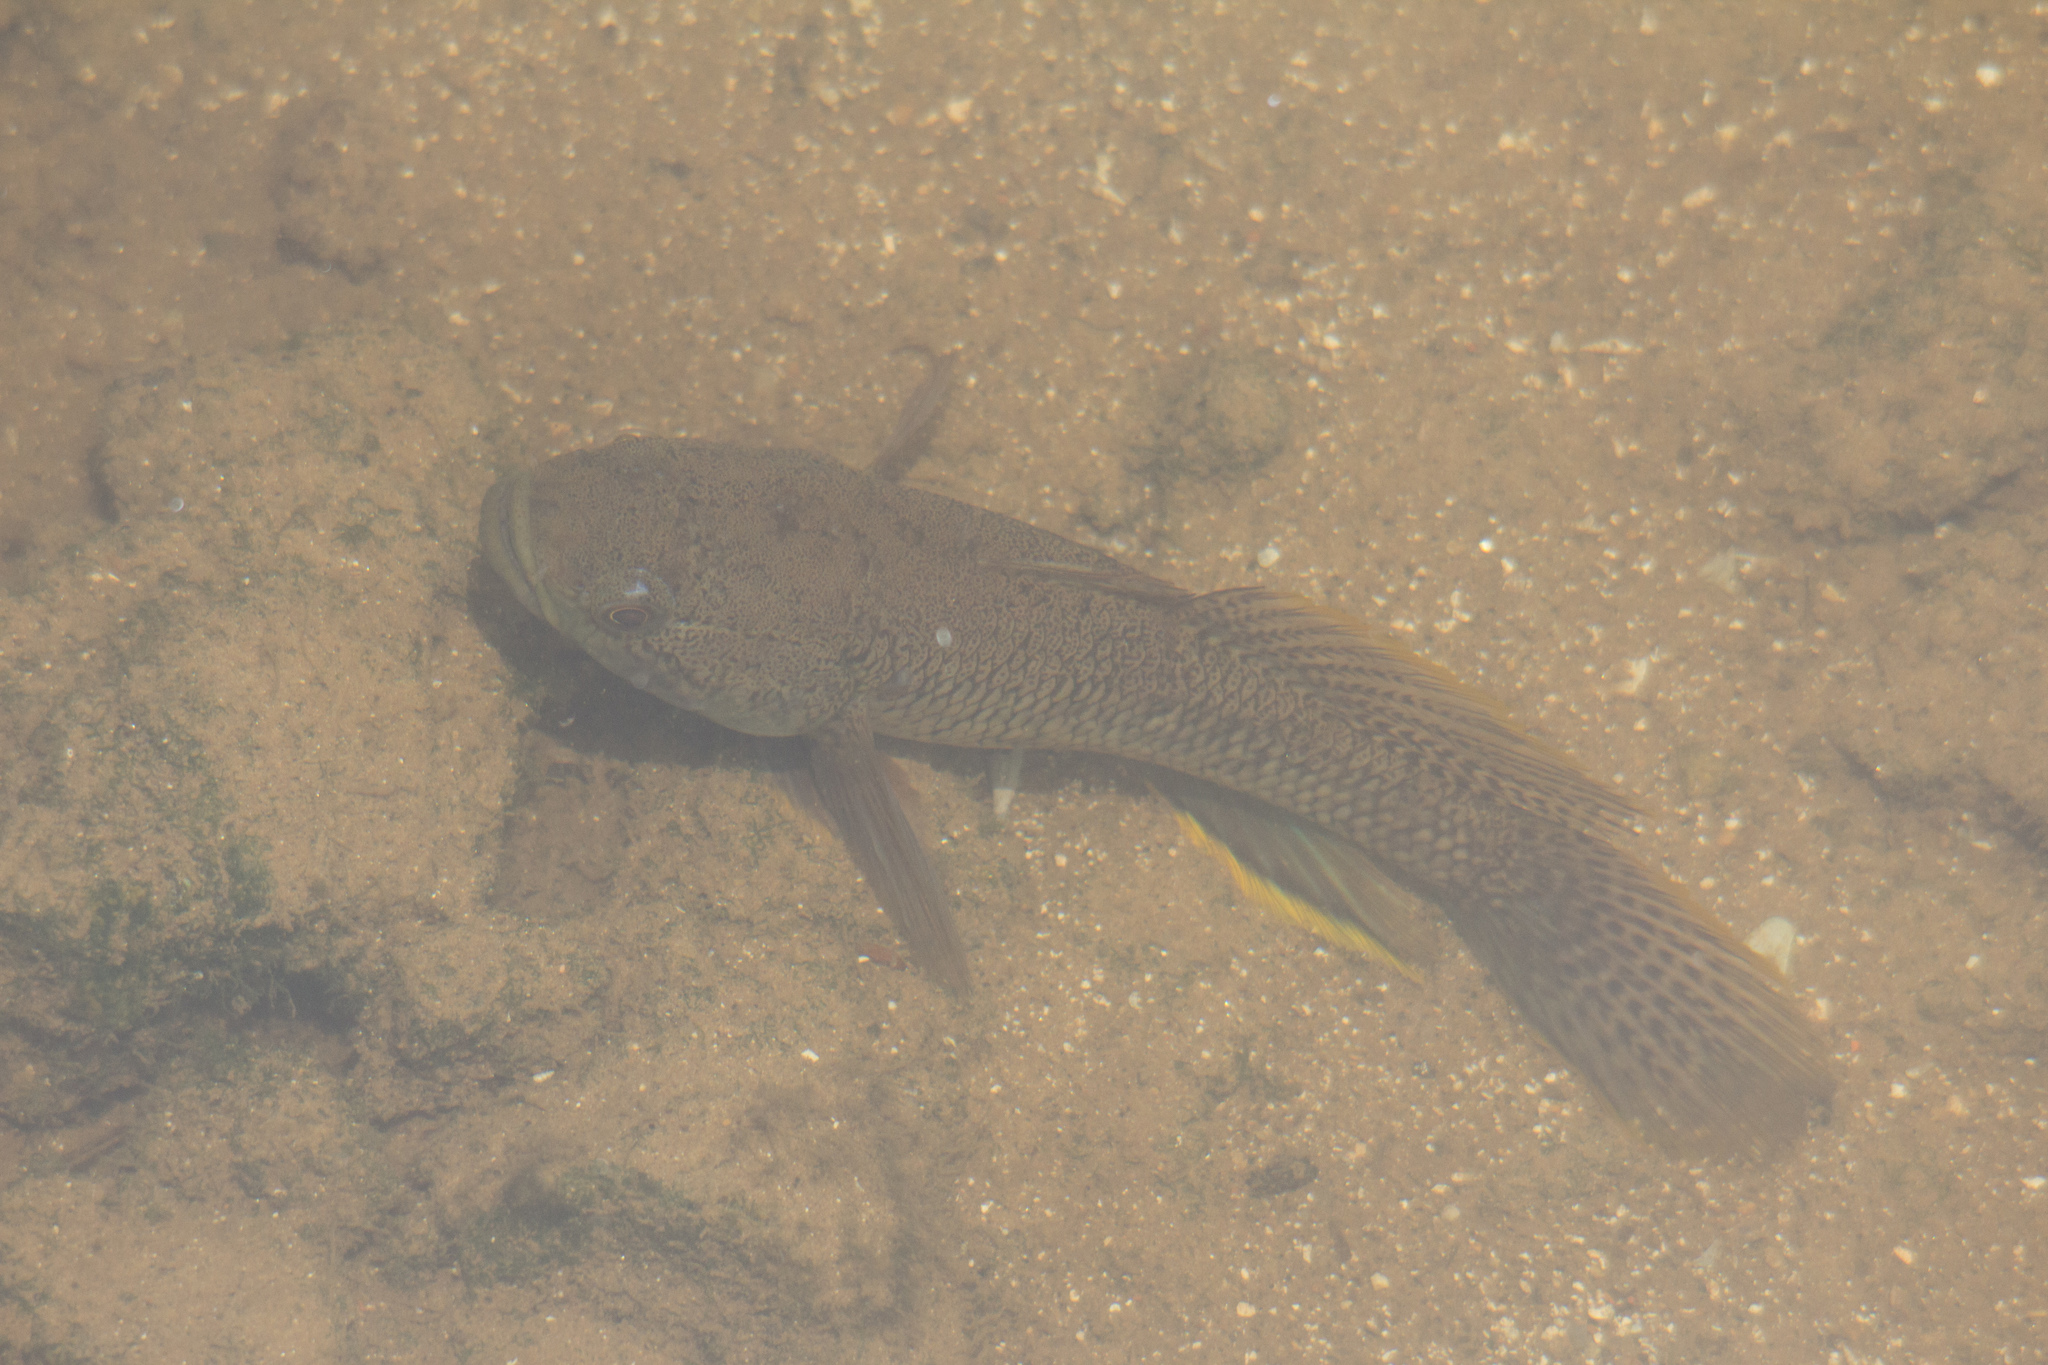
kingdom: Animalia
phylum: Chordata
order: Perciformes
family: Eleotridae
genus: Ophiocara
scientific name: Ophiocara porocephala
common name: Spangled gudgeon
